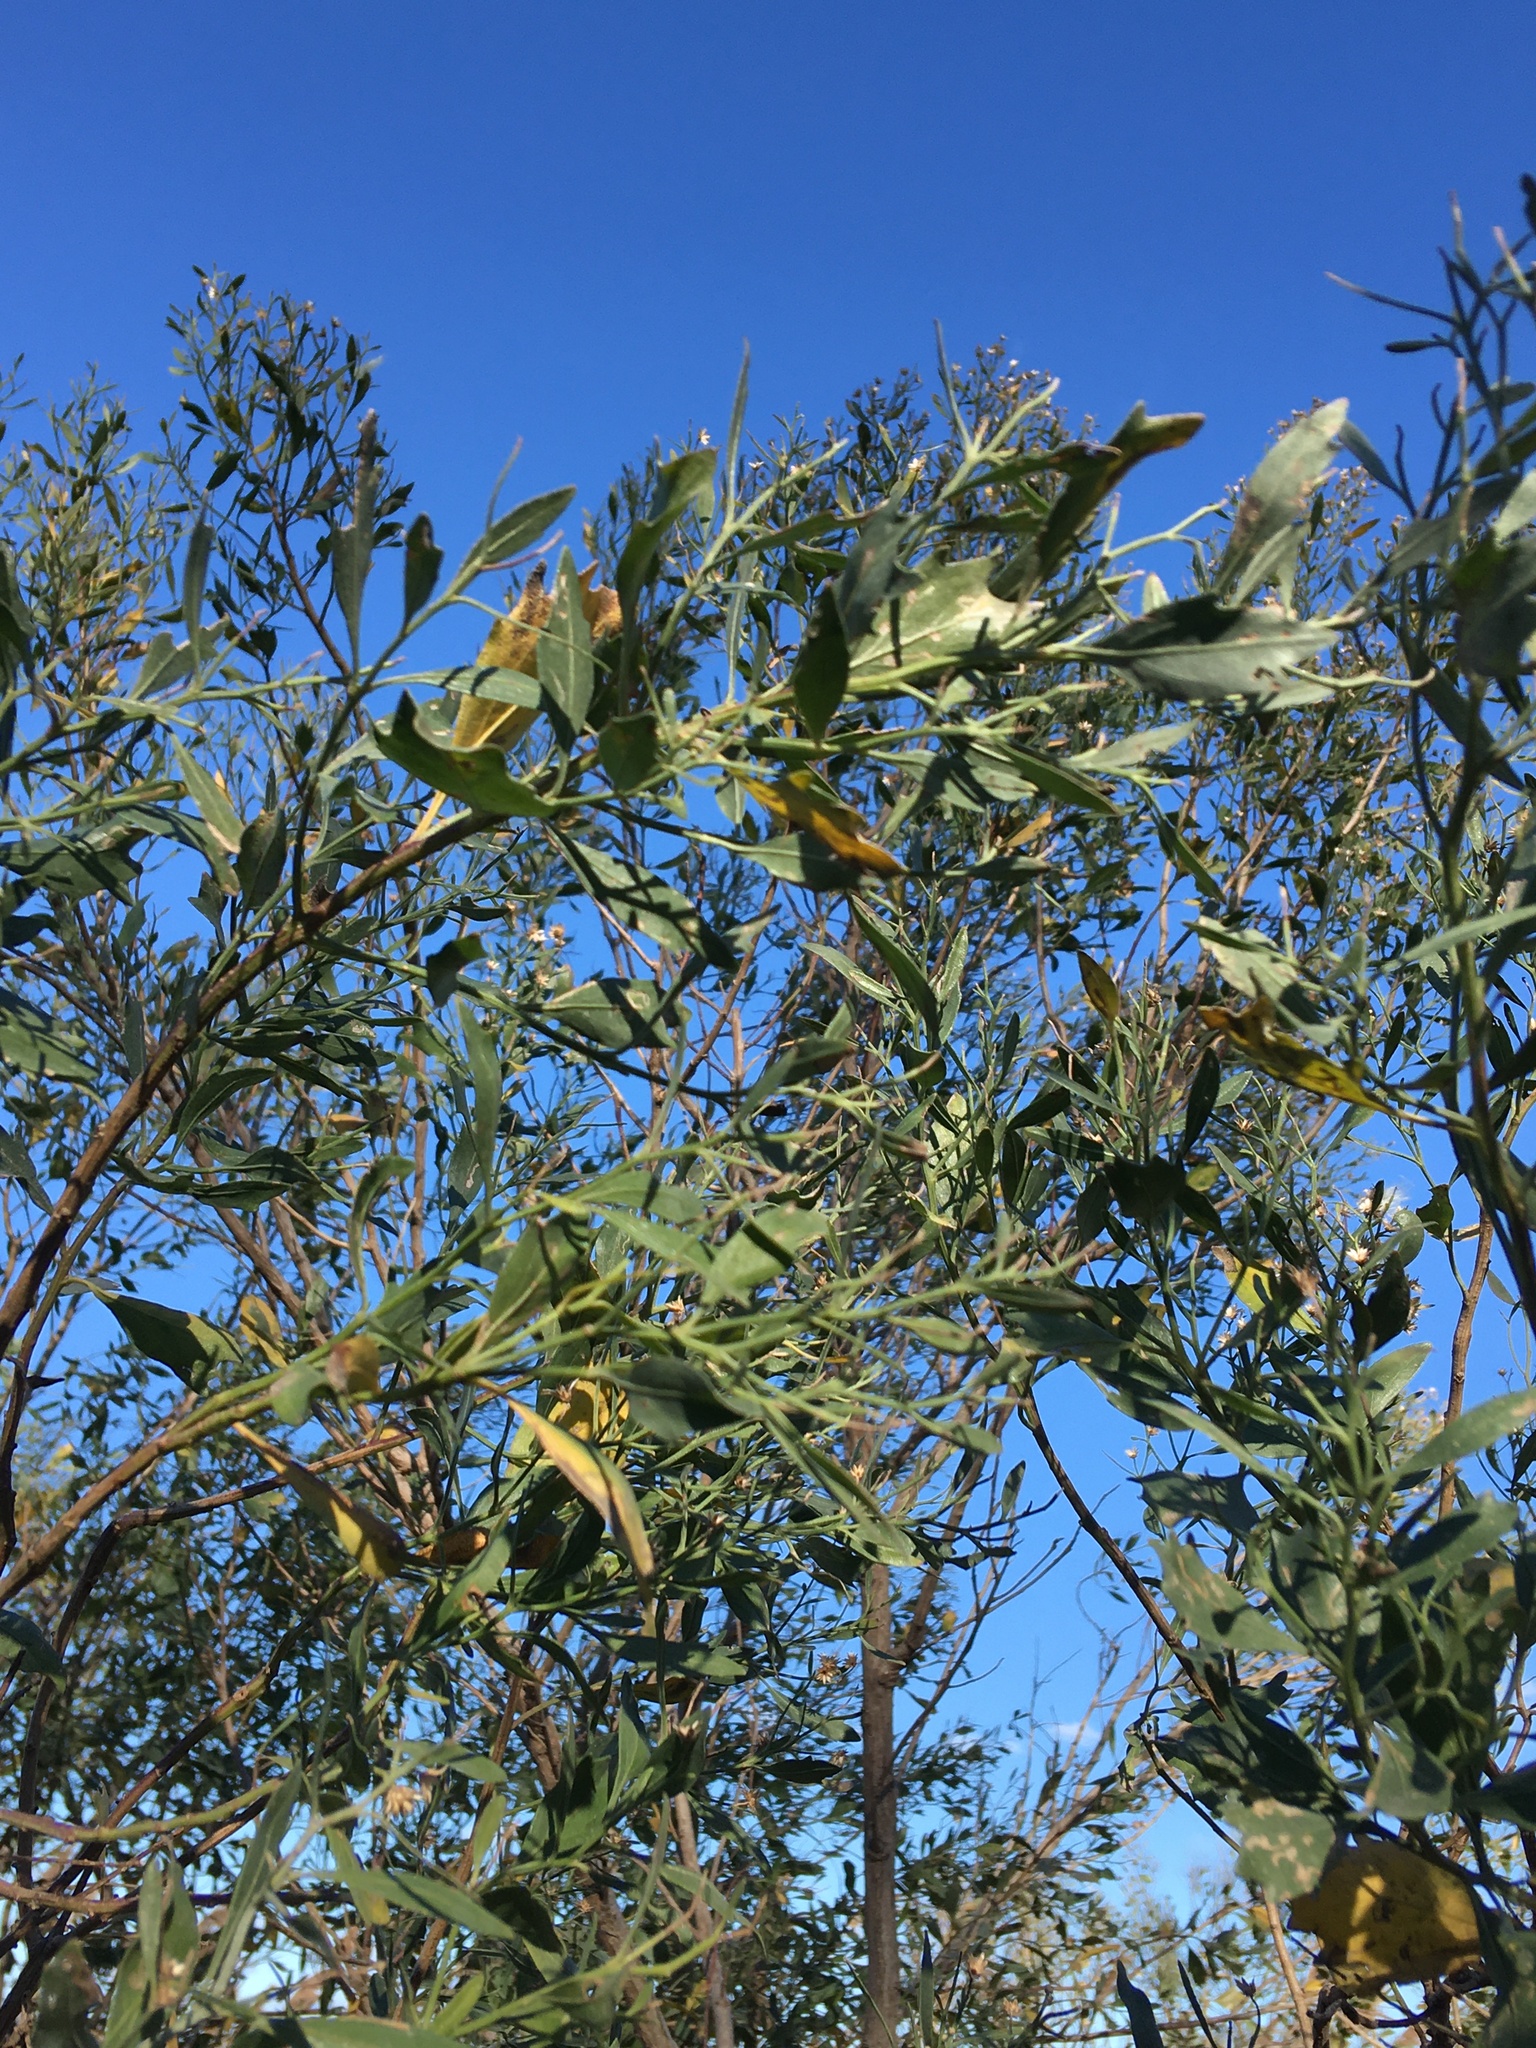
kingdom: Plantae
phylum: Tracheophyta
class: Magnoliopsida
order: Asterales
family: Asteraceae
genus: Baccharis
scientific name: Baccharis halimifolia
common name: Eastern baccharis
